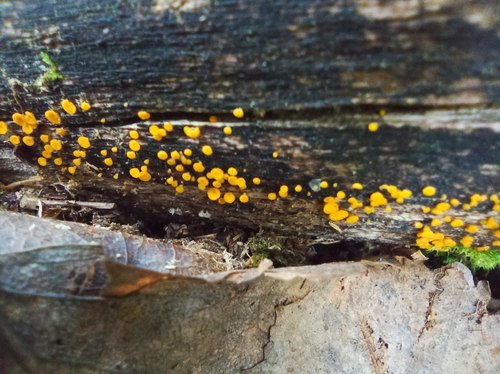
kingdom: Fungi
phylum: Ascomycota
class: Leotiomycetes
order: Helotiales
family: Pezizellaceae
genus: Calycina
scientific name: Calycina citrina
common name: Yellow fairy cups
